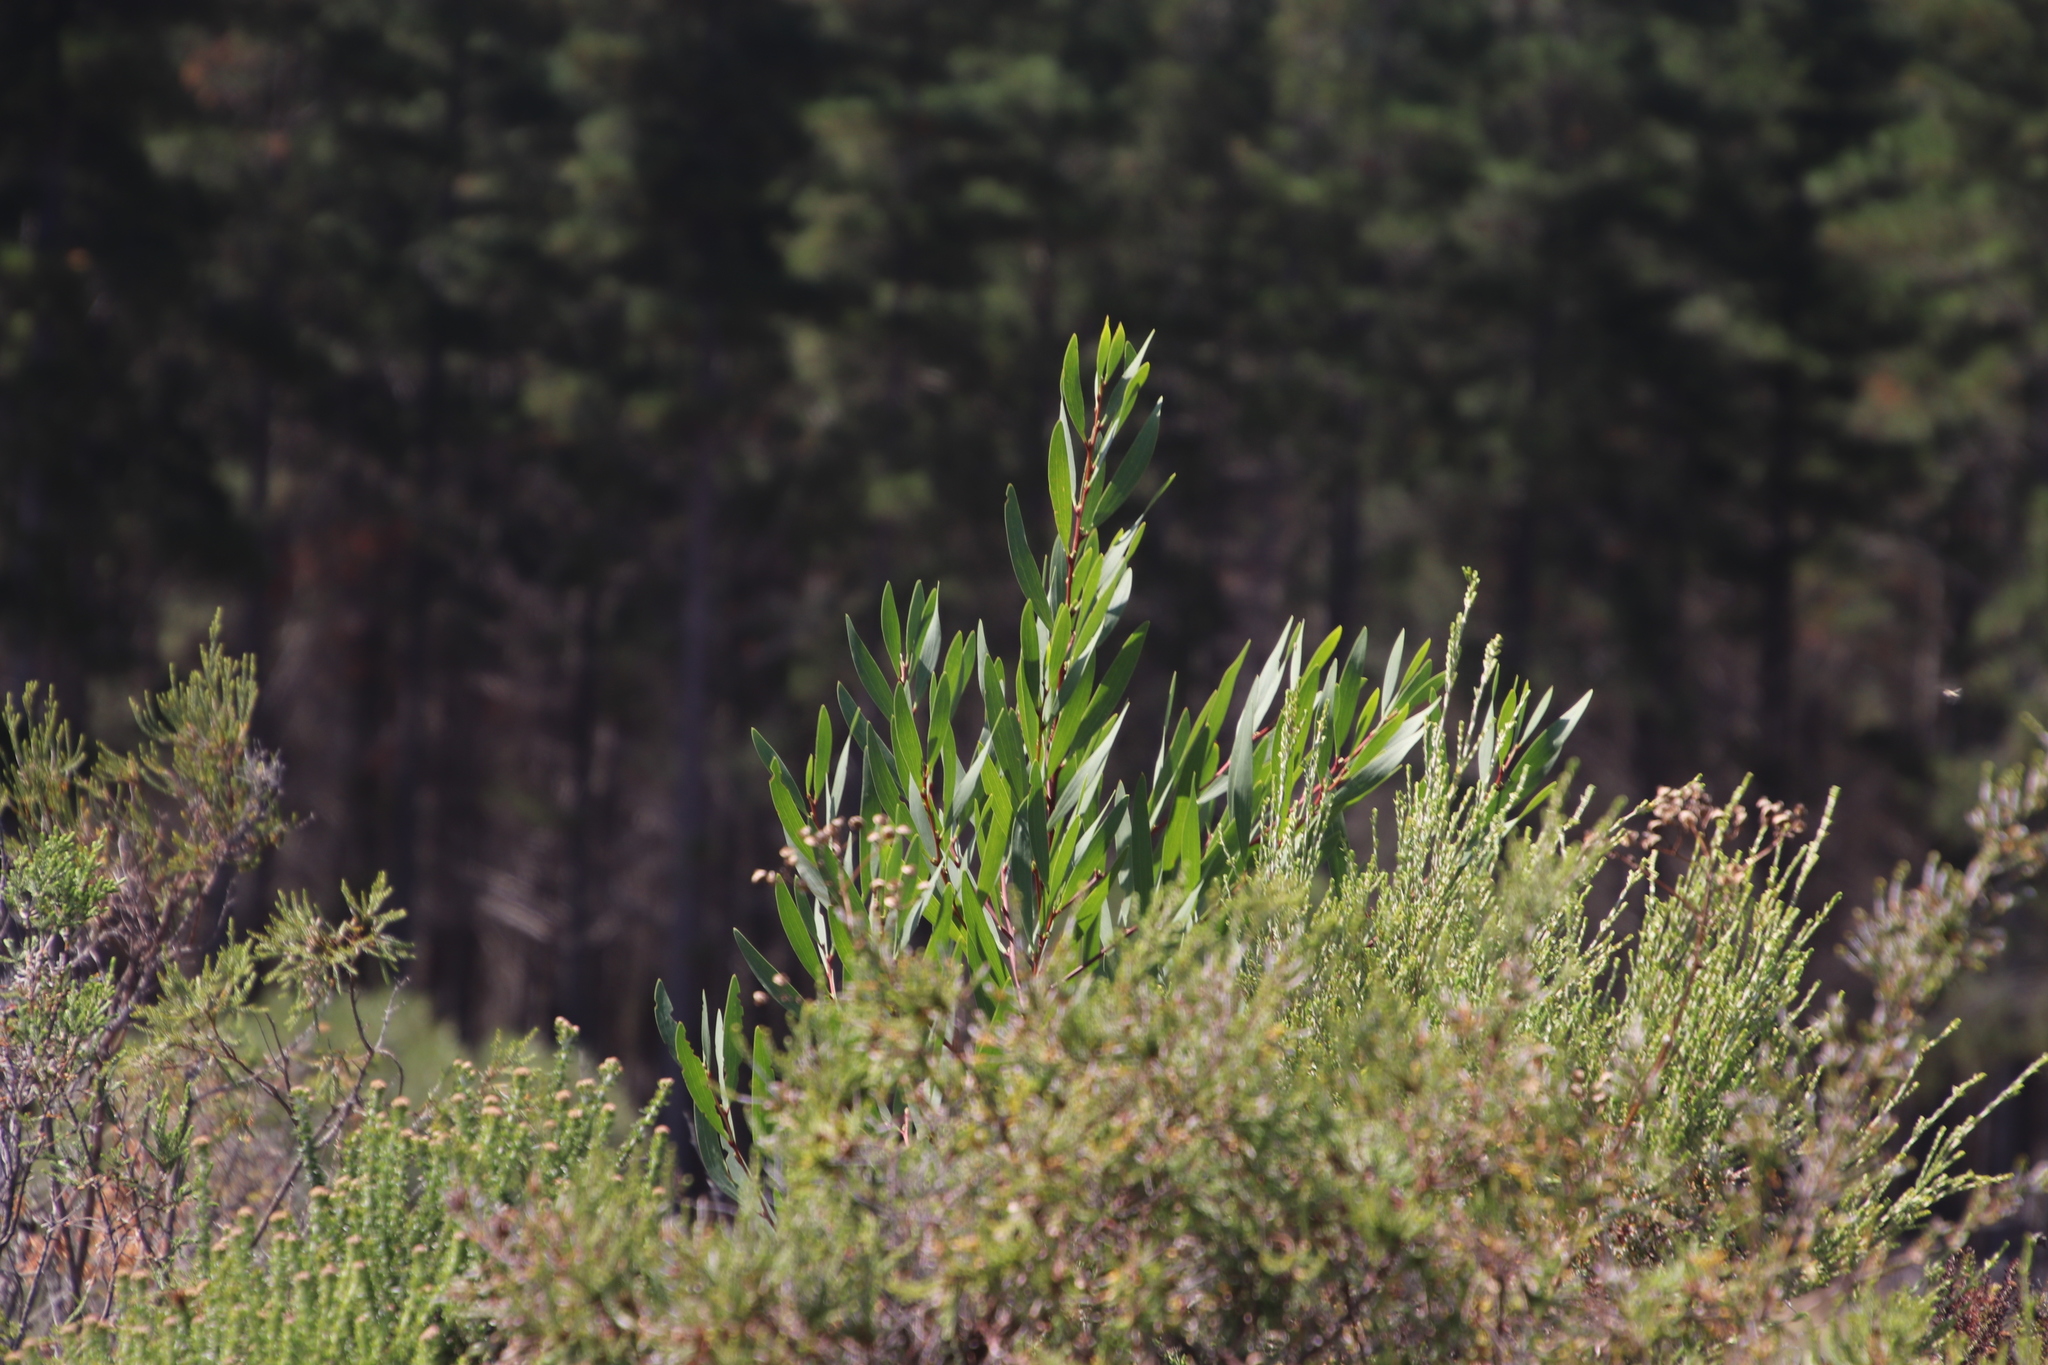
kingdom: Plantae
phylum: Tracheophyta
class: Magnoliopsida
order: Fabales
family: Fabaceae
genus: Acacia
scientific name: Acacia longifolia
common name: Sydney golden wattle
